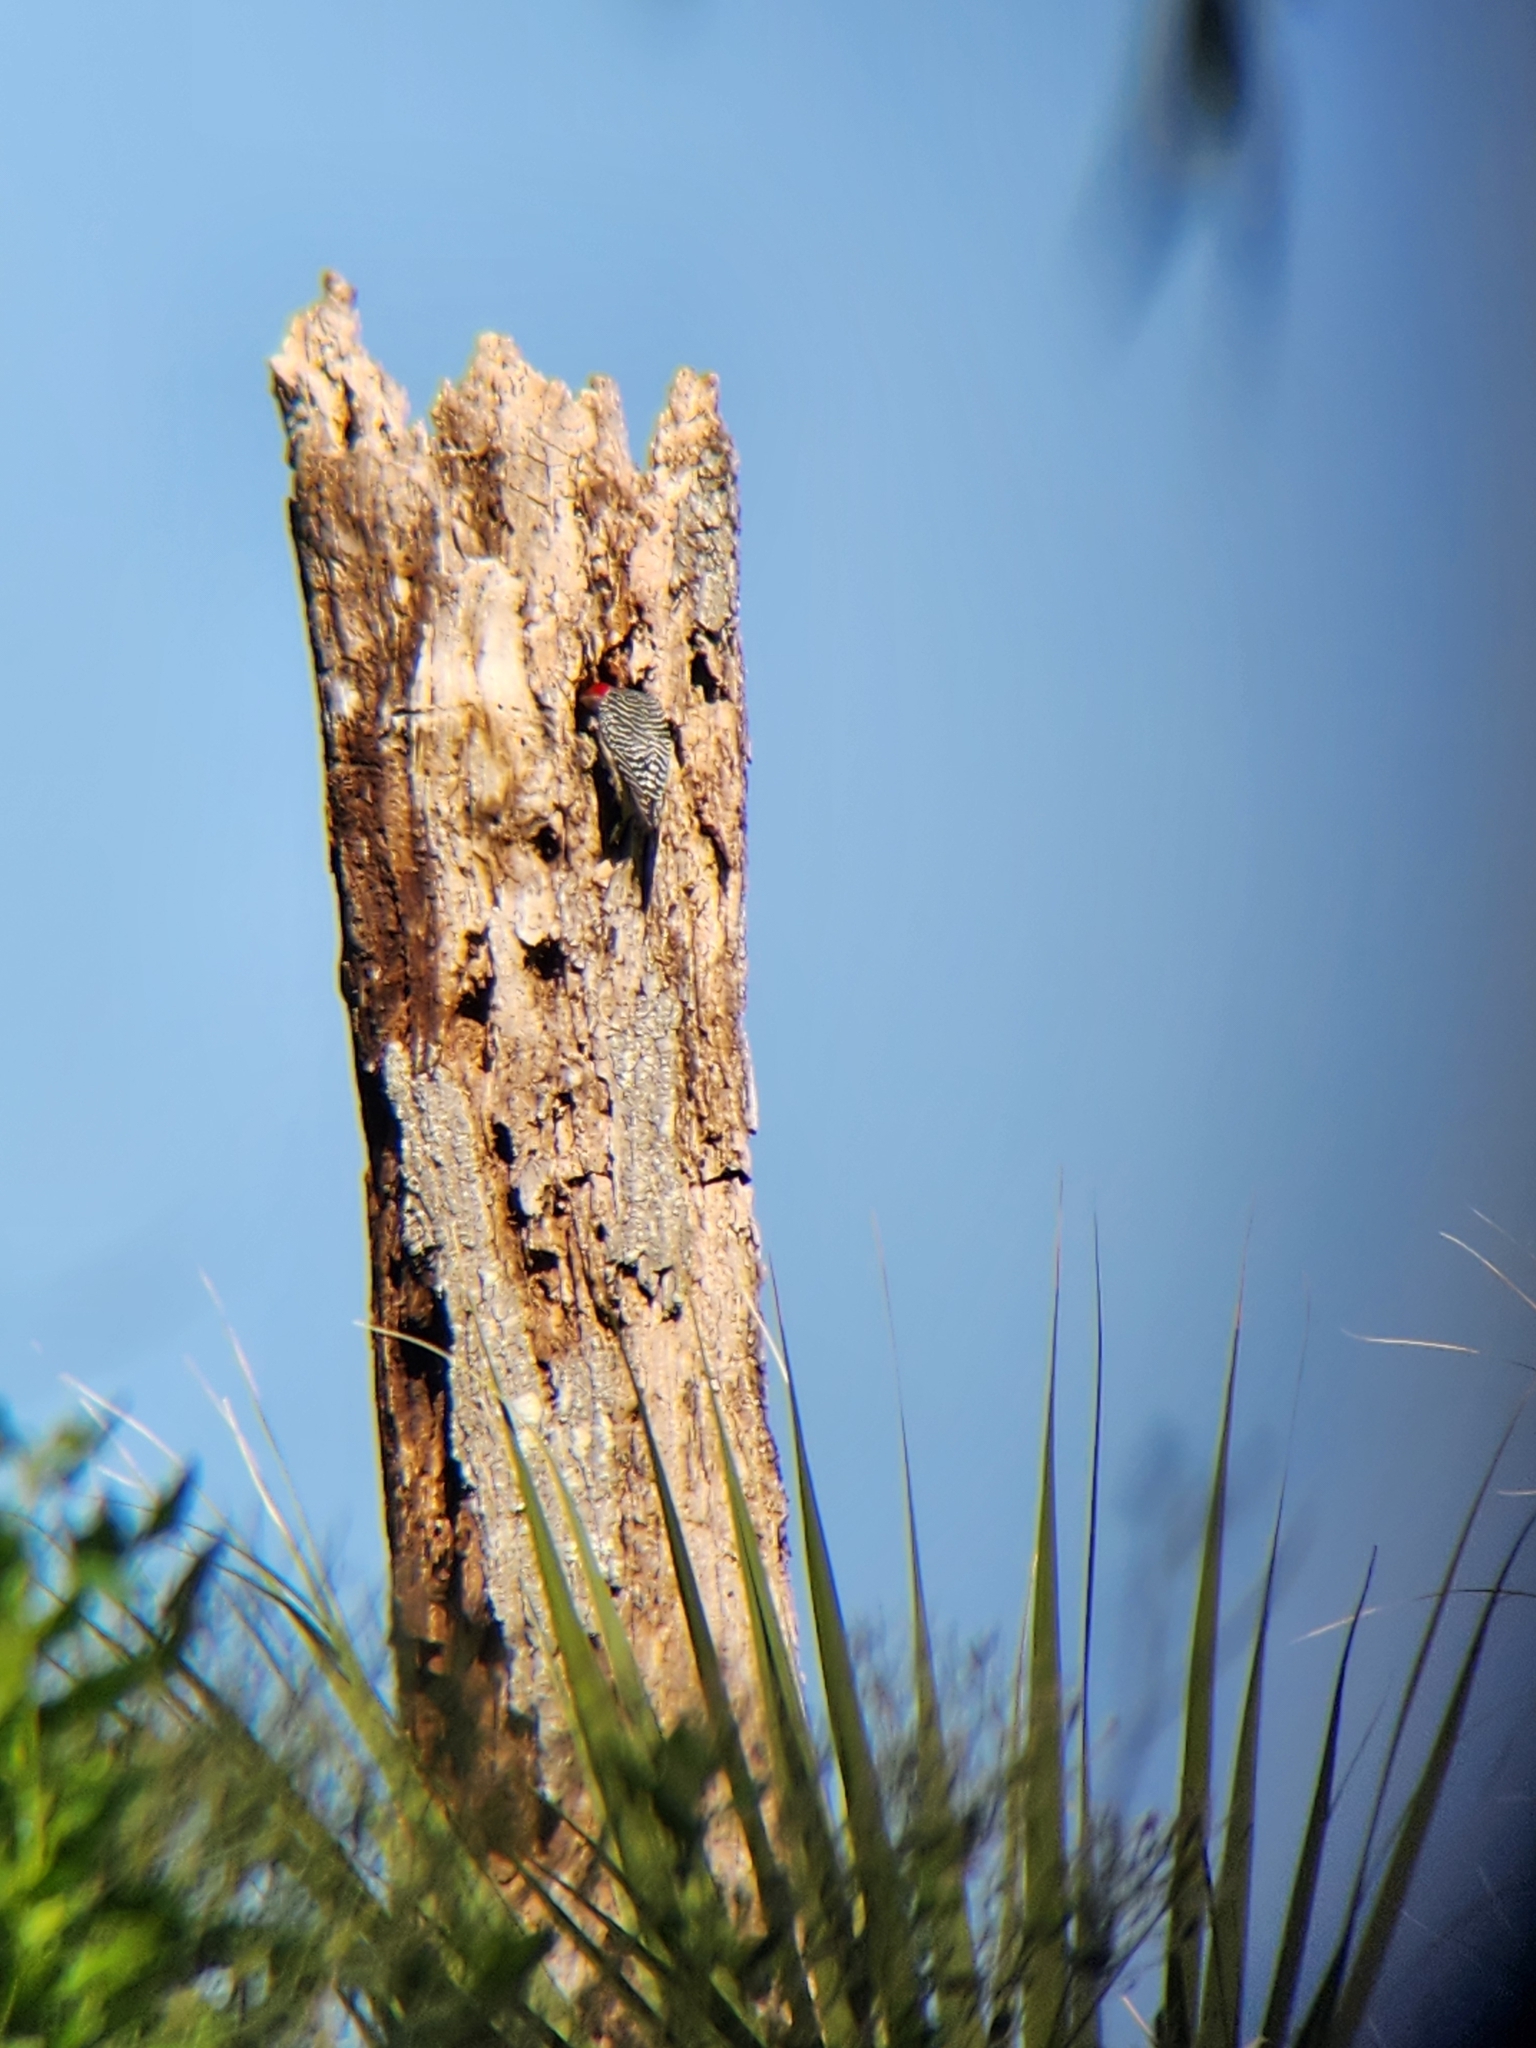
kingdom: Animalia
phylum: Chordata
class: Aves
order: Piciformes
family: Picidae
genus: Melanerpes
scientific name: Melanerpes carolinus
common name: Red-bellied woodpecker
